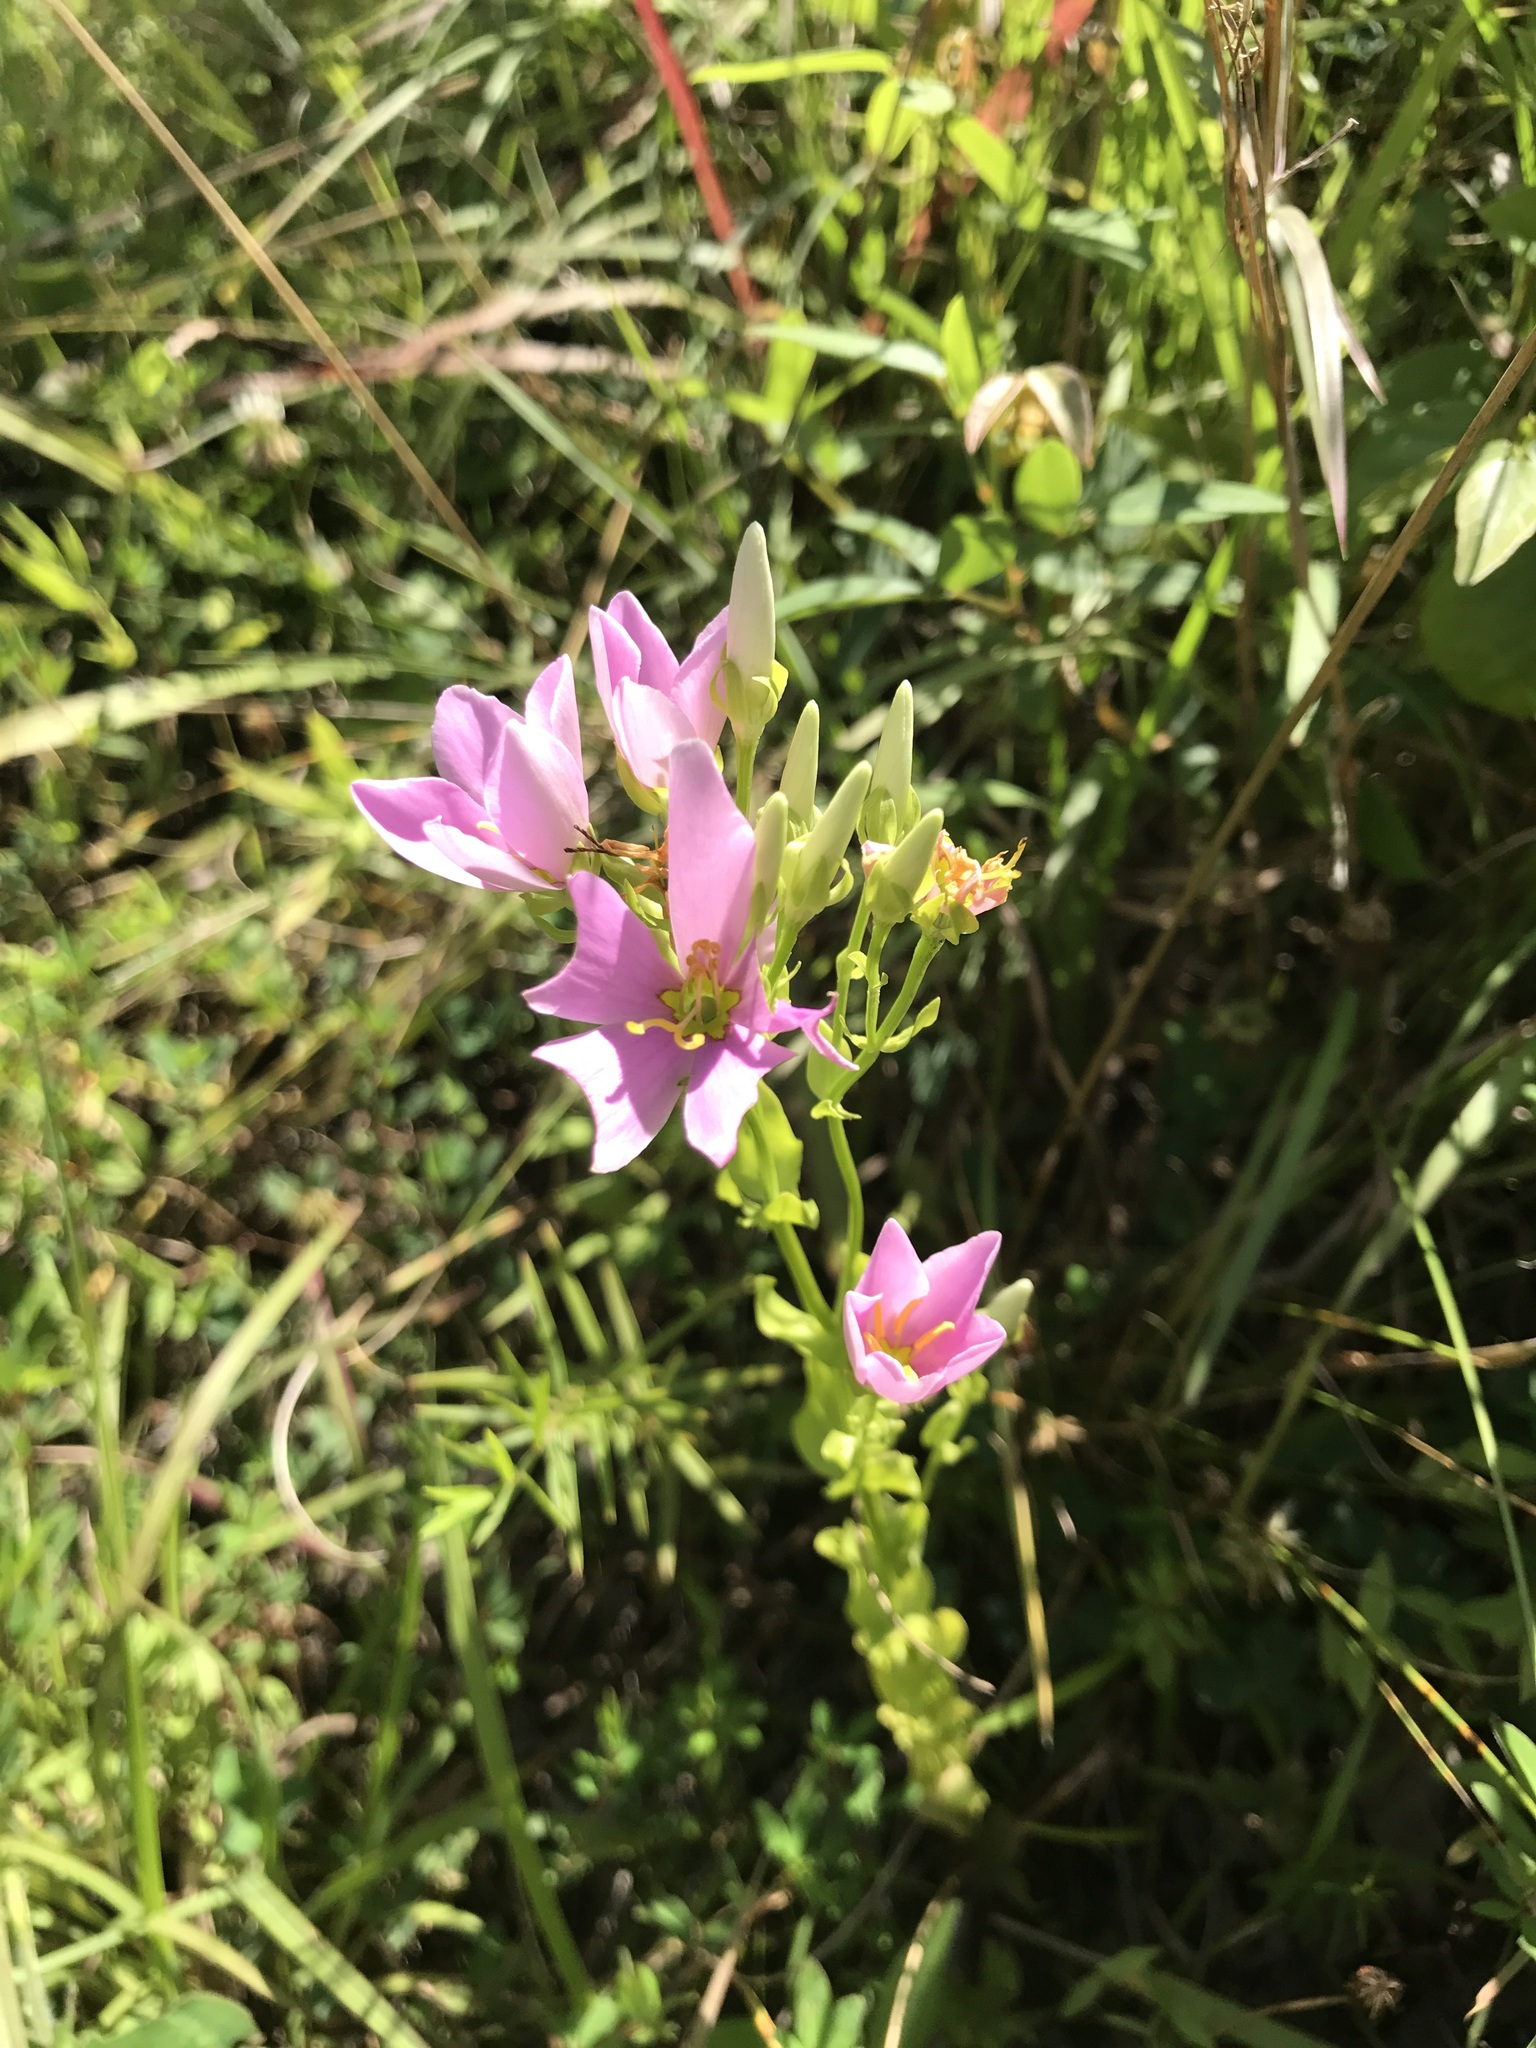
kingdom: Plantae
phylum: Tracheophyta
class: Magnoliopsida
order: Gentianales
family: Gentianaceae
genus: Sabatia
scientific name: Sabatia angularis
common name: Rose-pink
